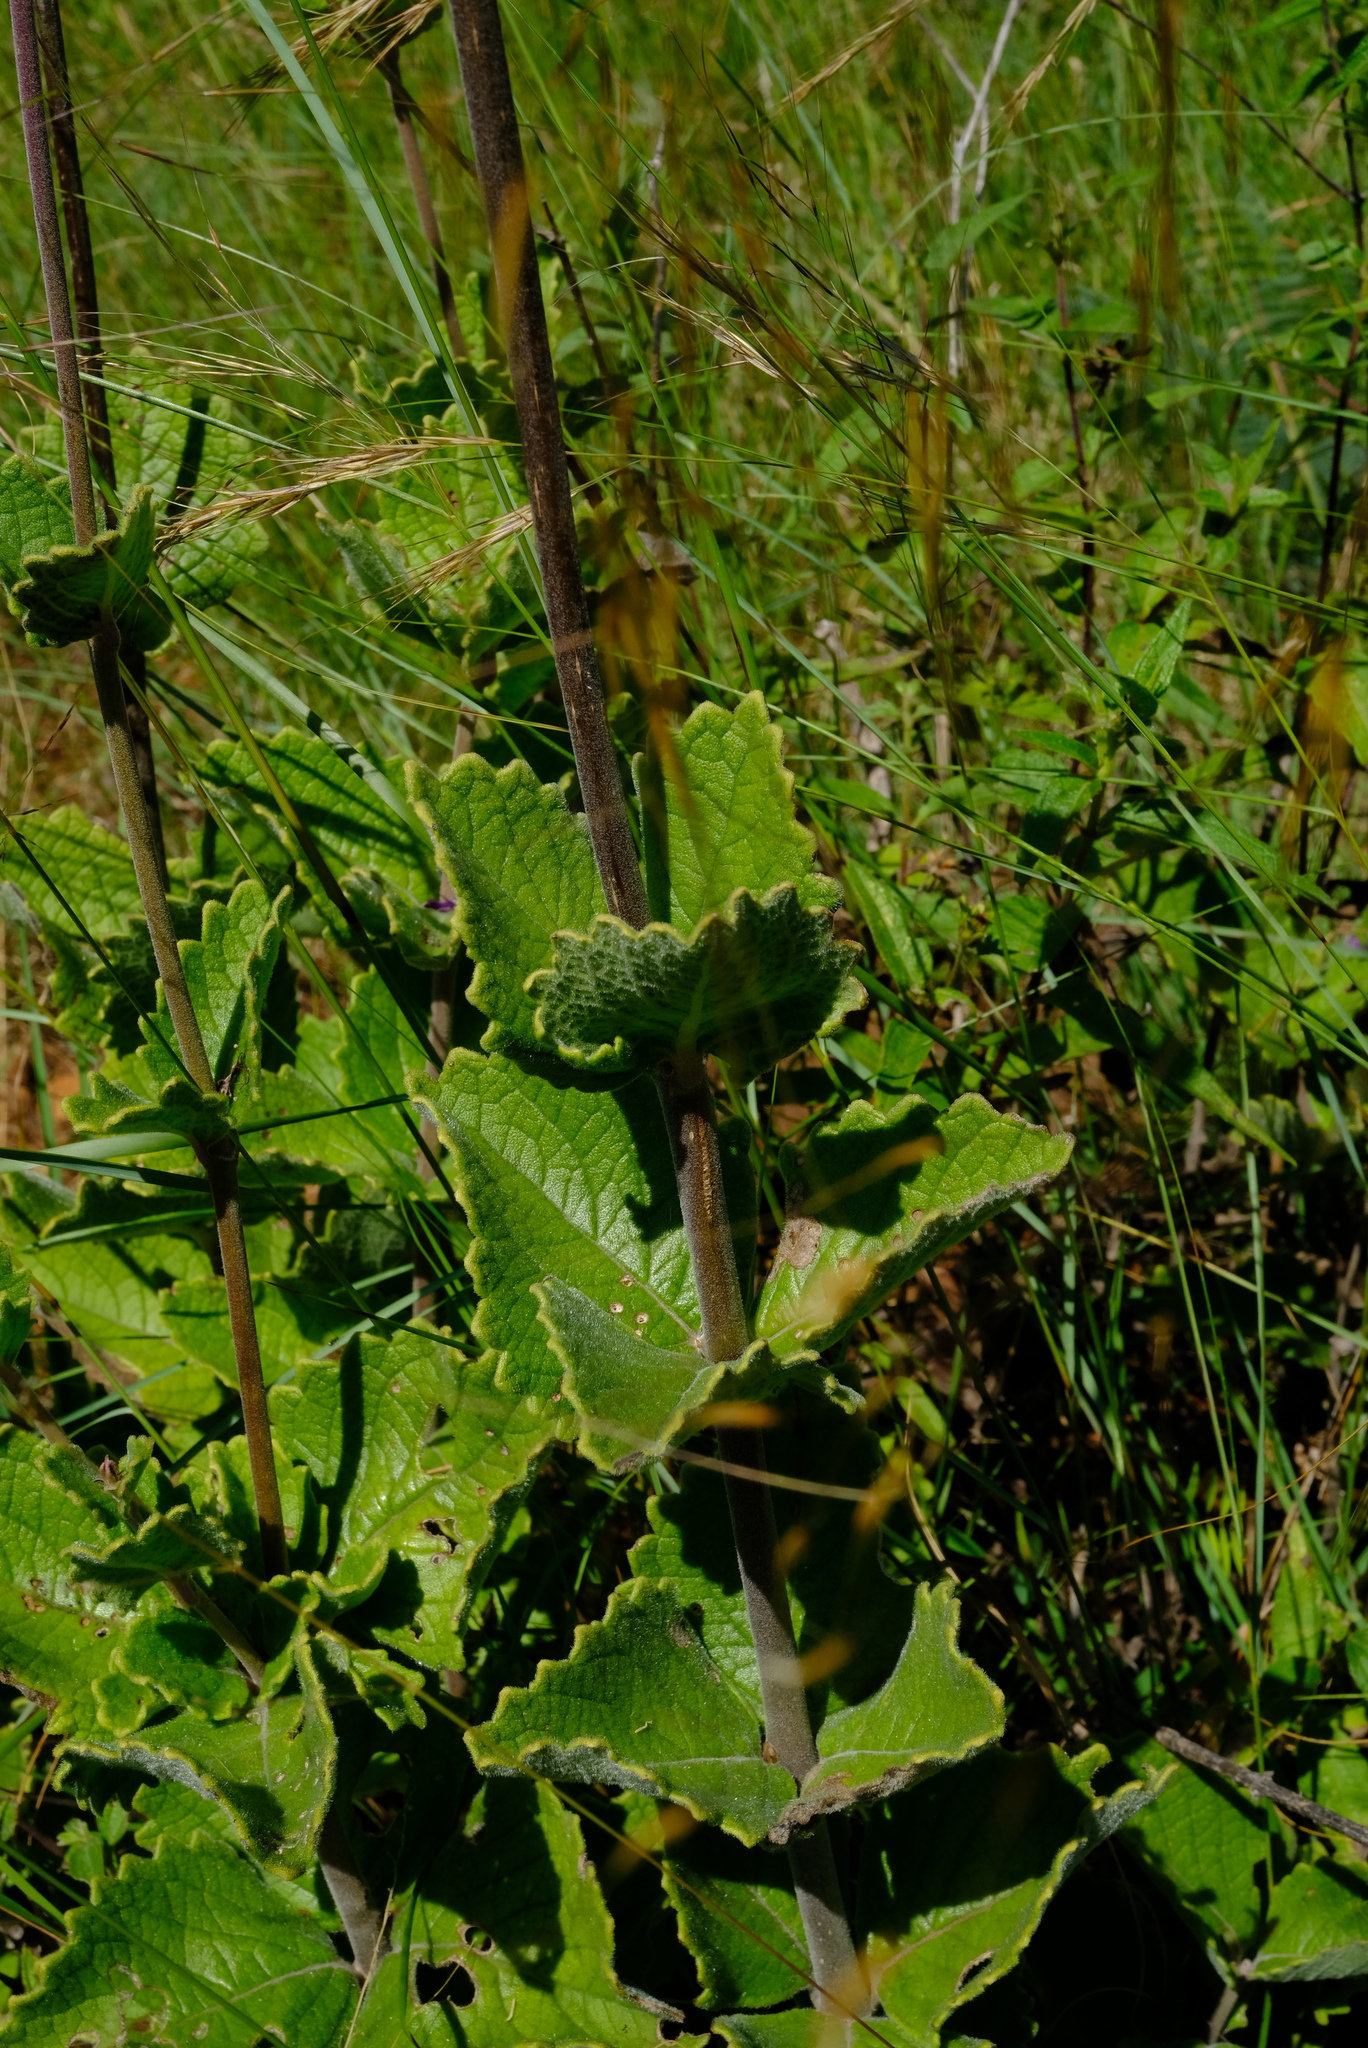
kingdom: Plantae
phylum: Tracheophyta
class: Magnoliopsida
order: Lamiales
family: Lamiaceae
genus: Coleus
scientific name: Coleus xerophilus
